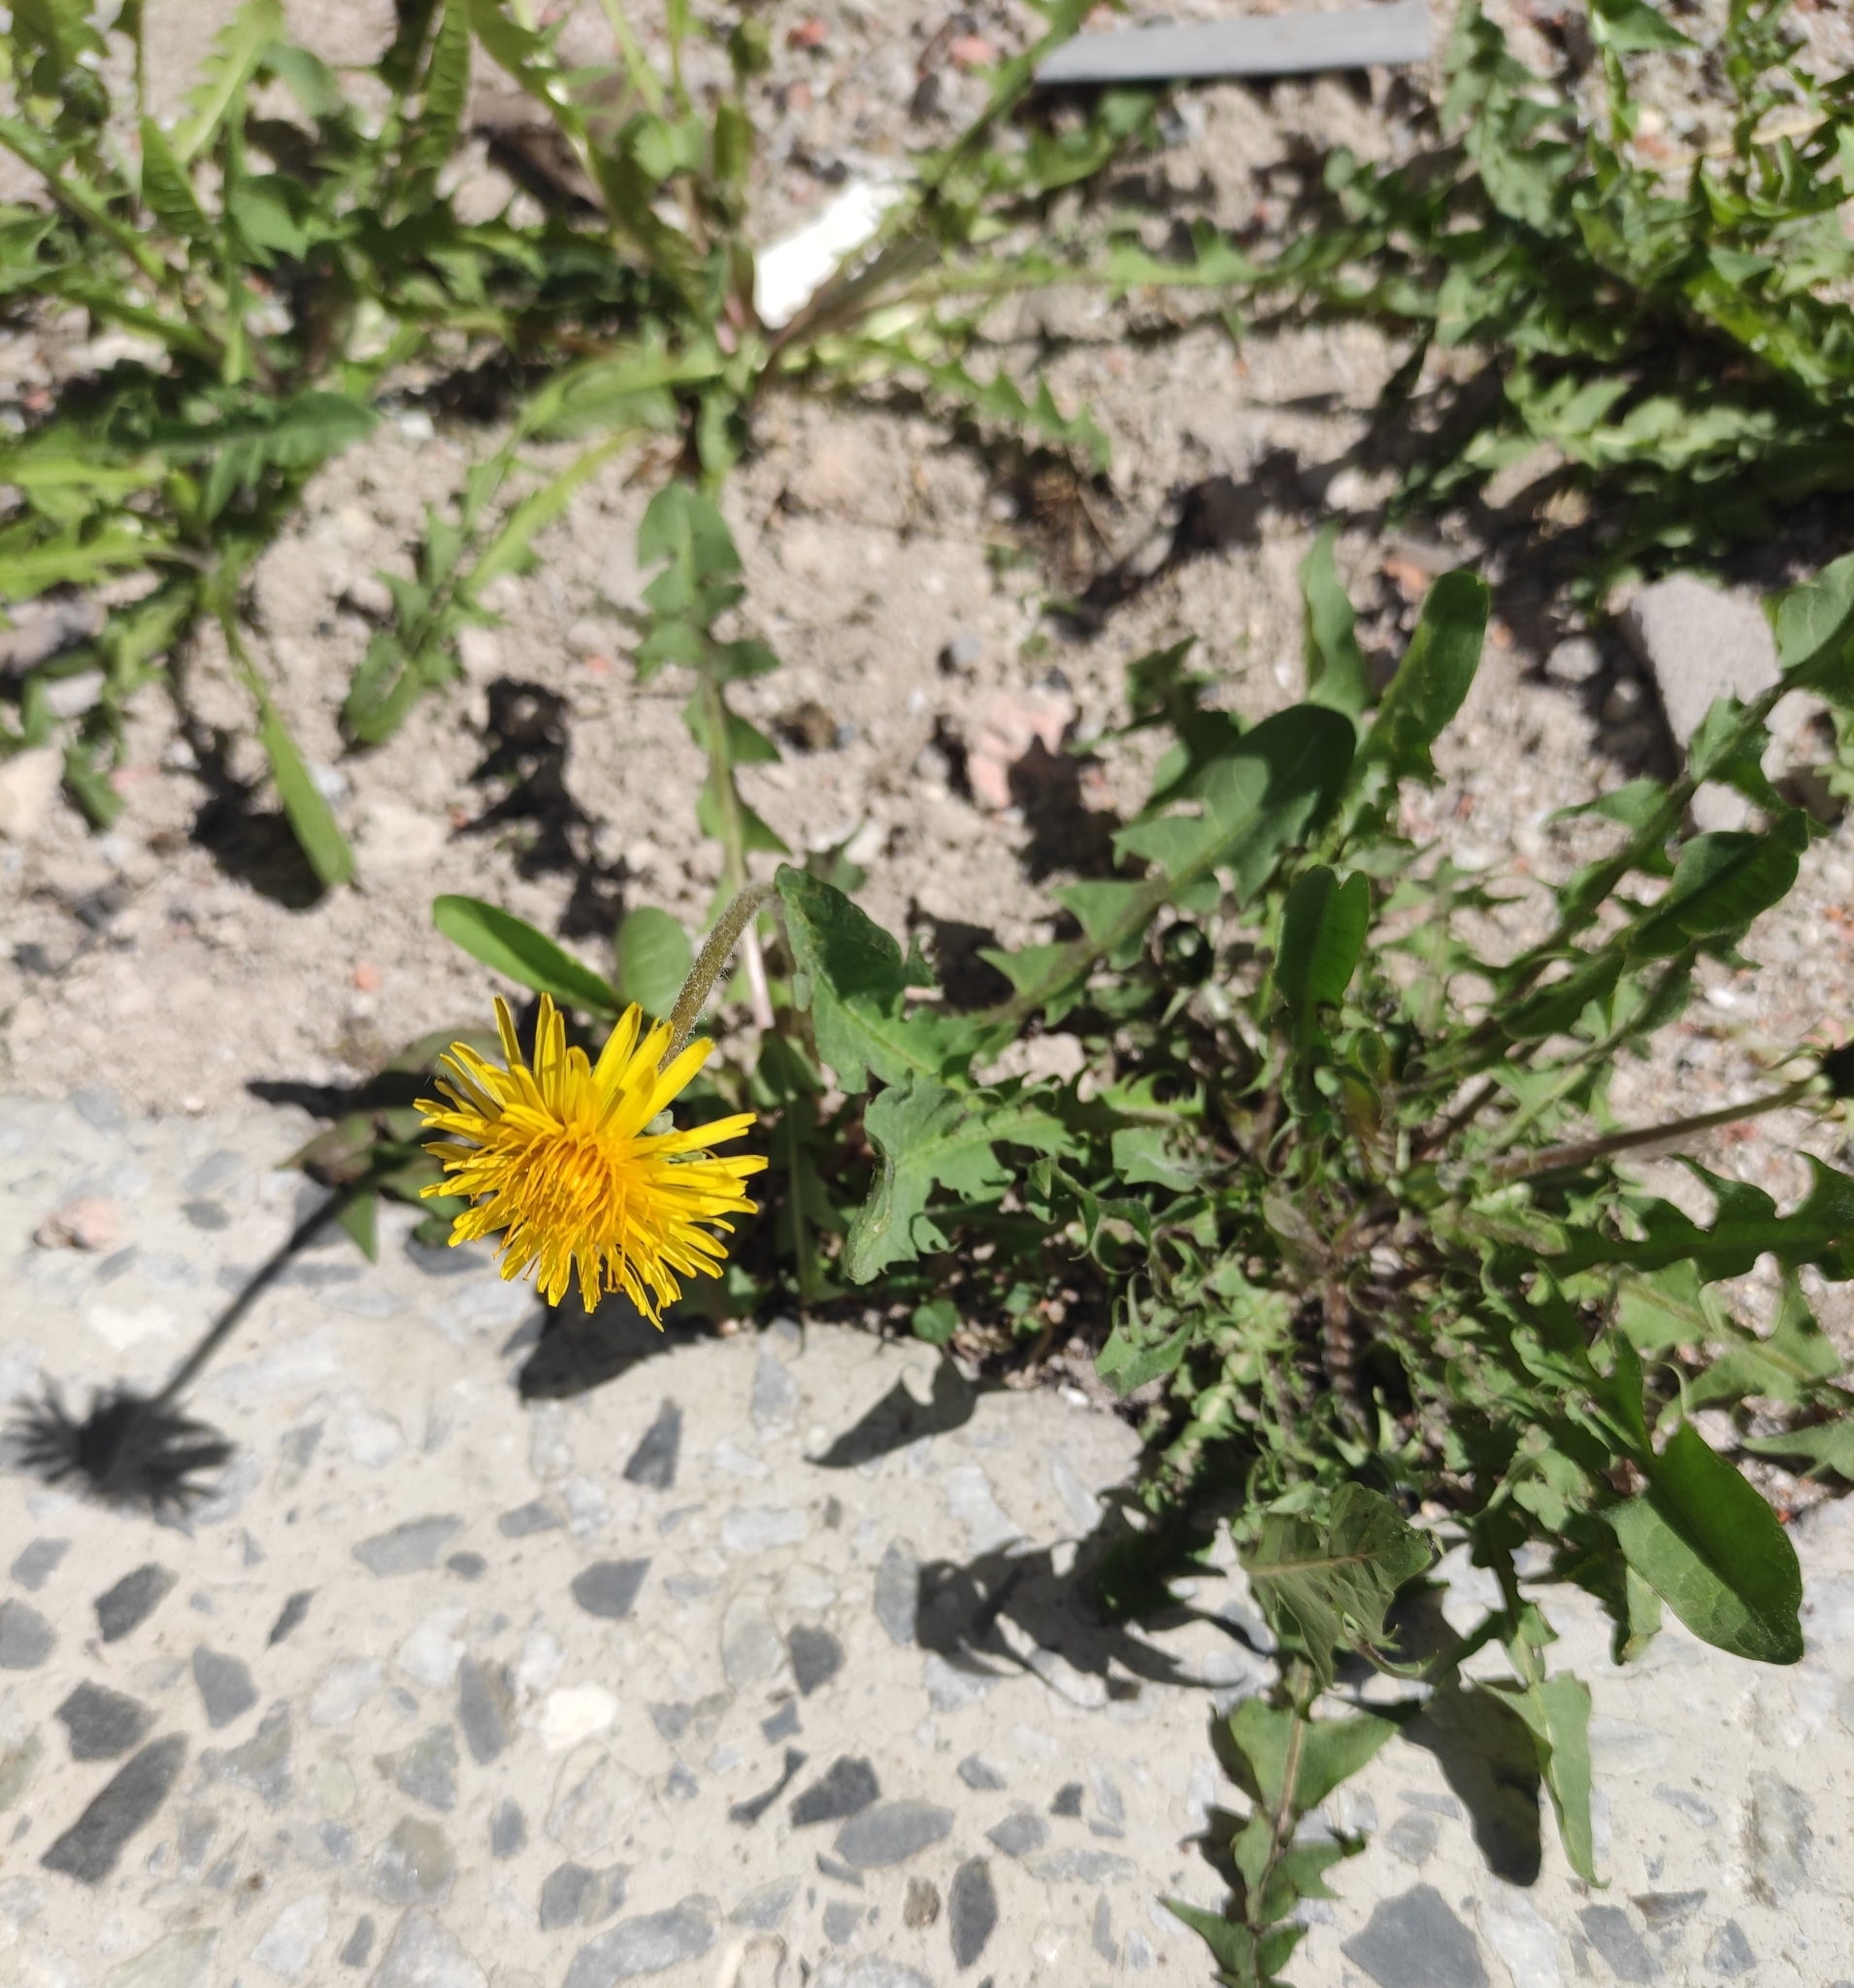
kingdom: Plantae
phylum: Tracheophyta
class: Magnoliopsida
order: Asterales
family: Asteraceae
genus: Taraxacum
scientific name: Taraxacum officinale
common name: Common dandelion
